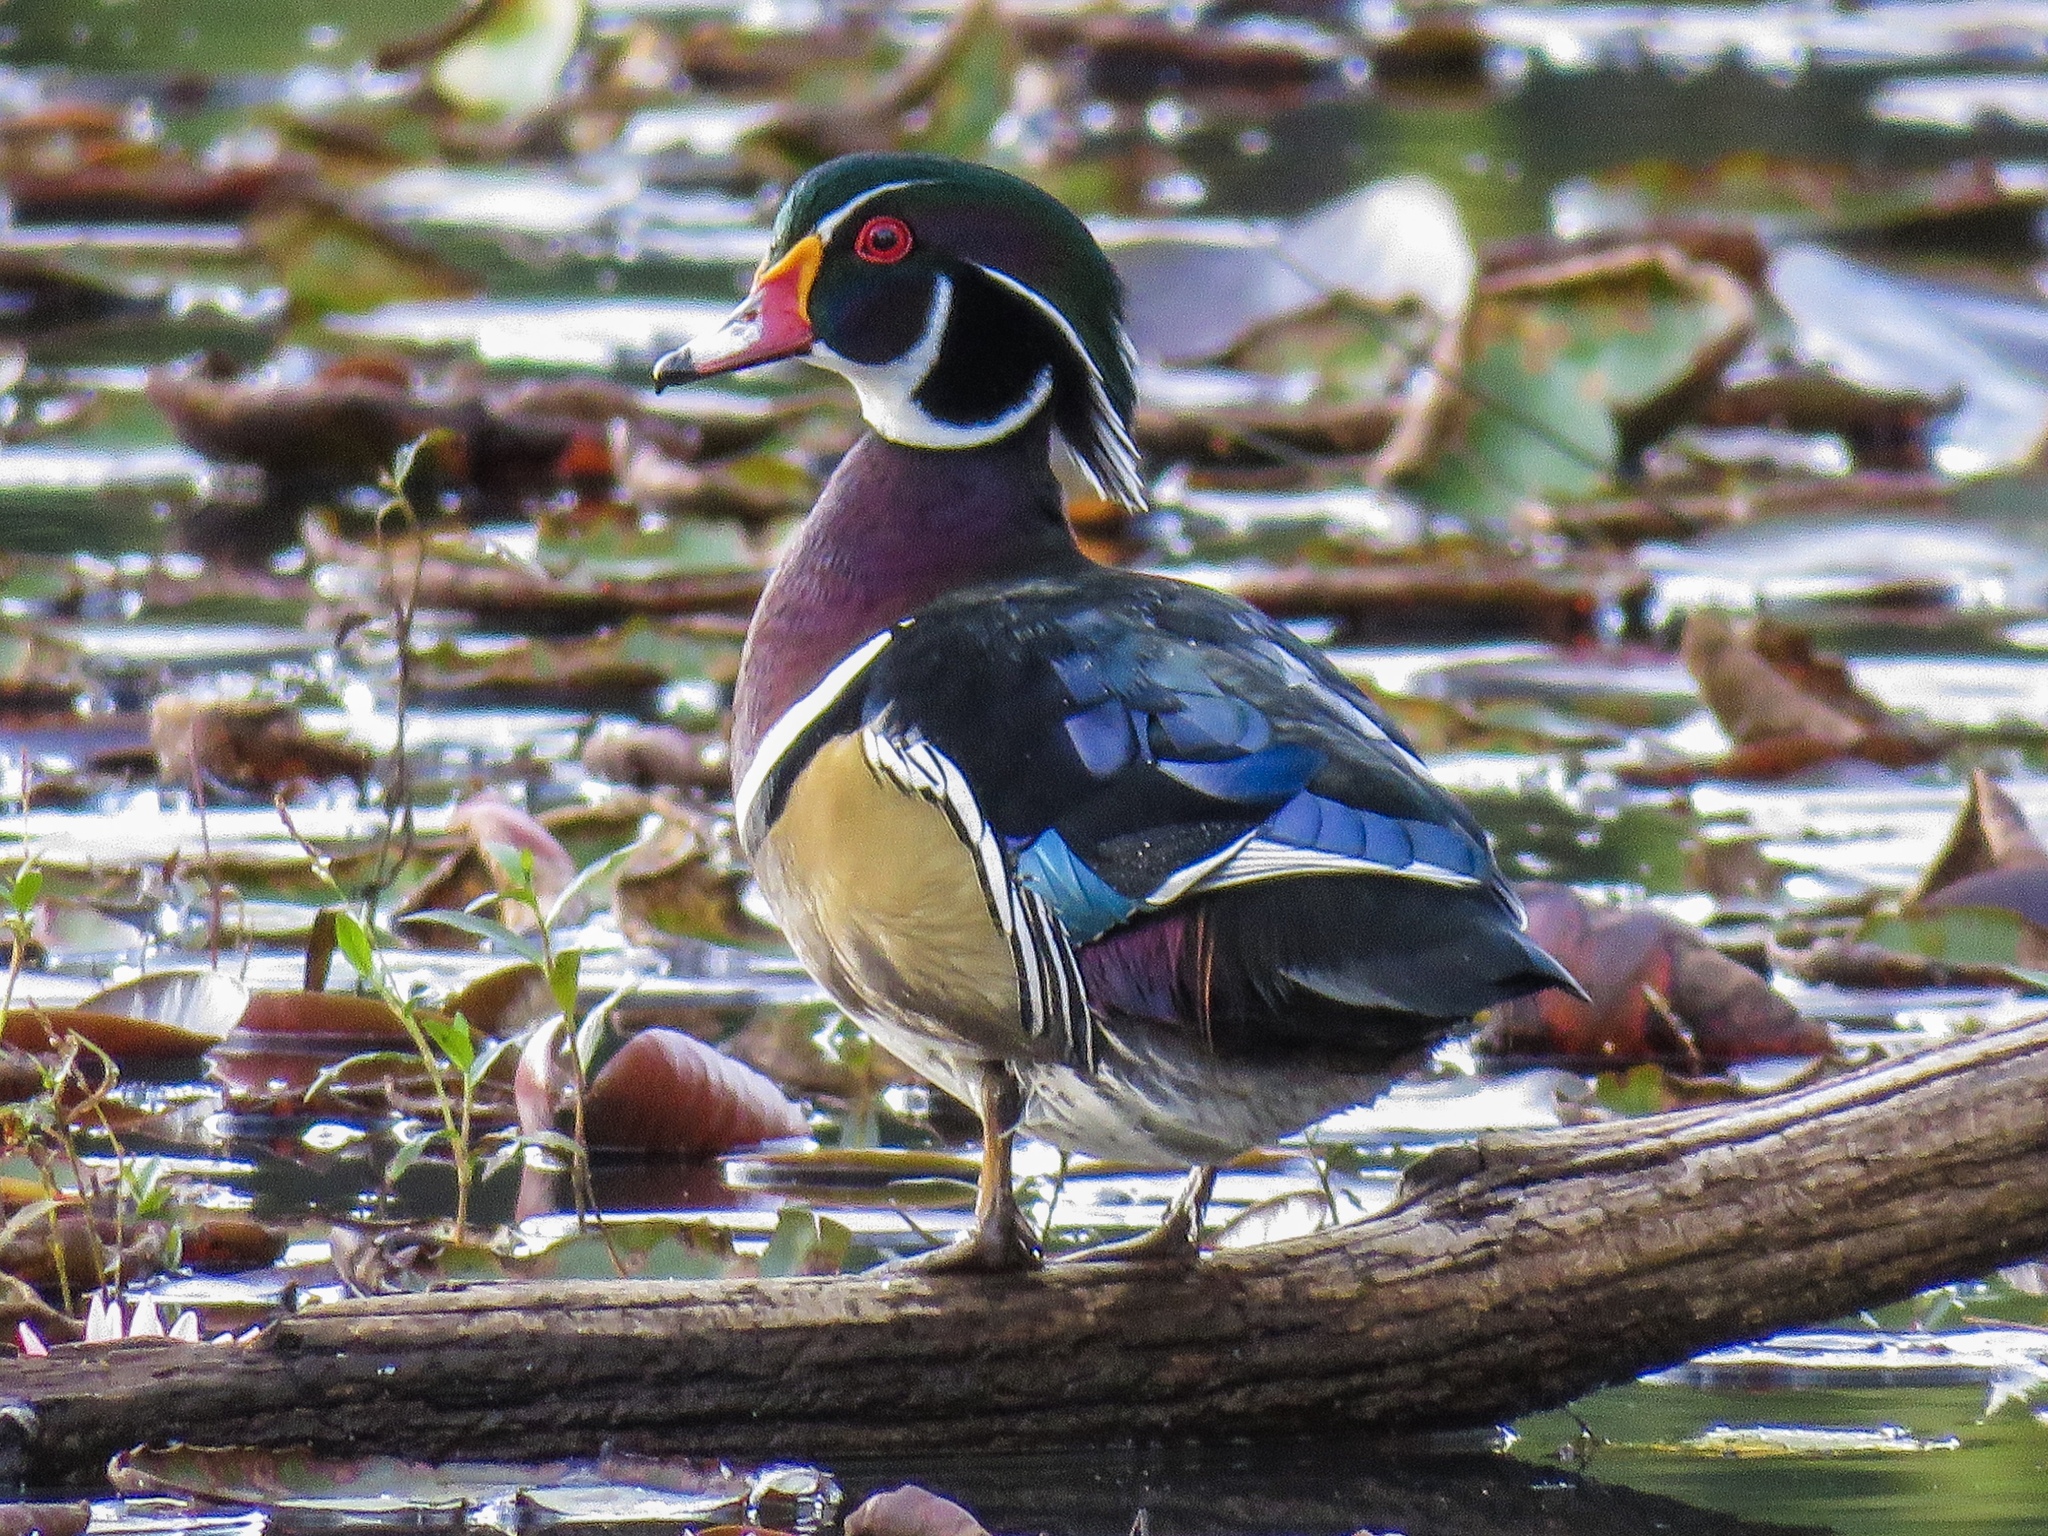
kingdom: Animalia
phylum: Chordata
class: Aves
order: Anseriformes
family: Anatidae
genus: Aix
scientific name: Aix sponsa
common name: Wood duck
